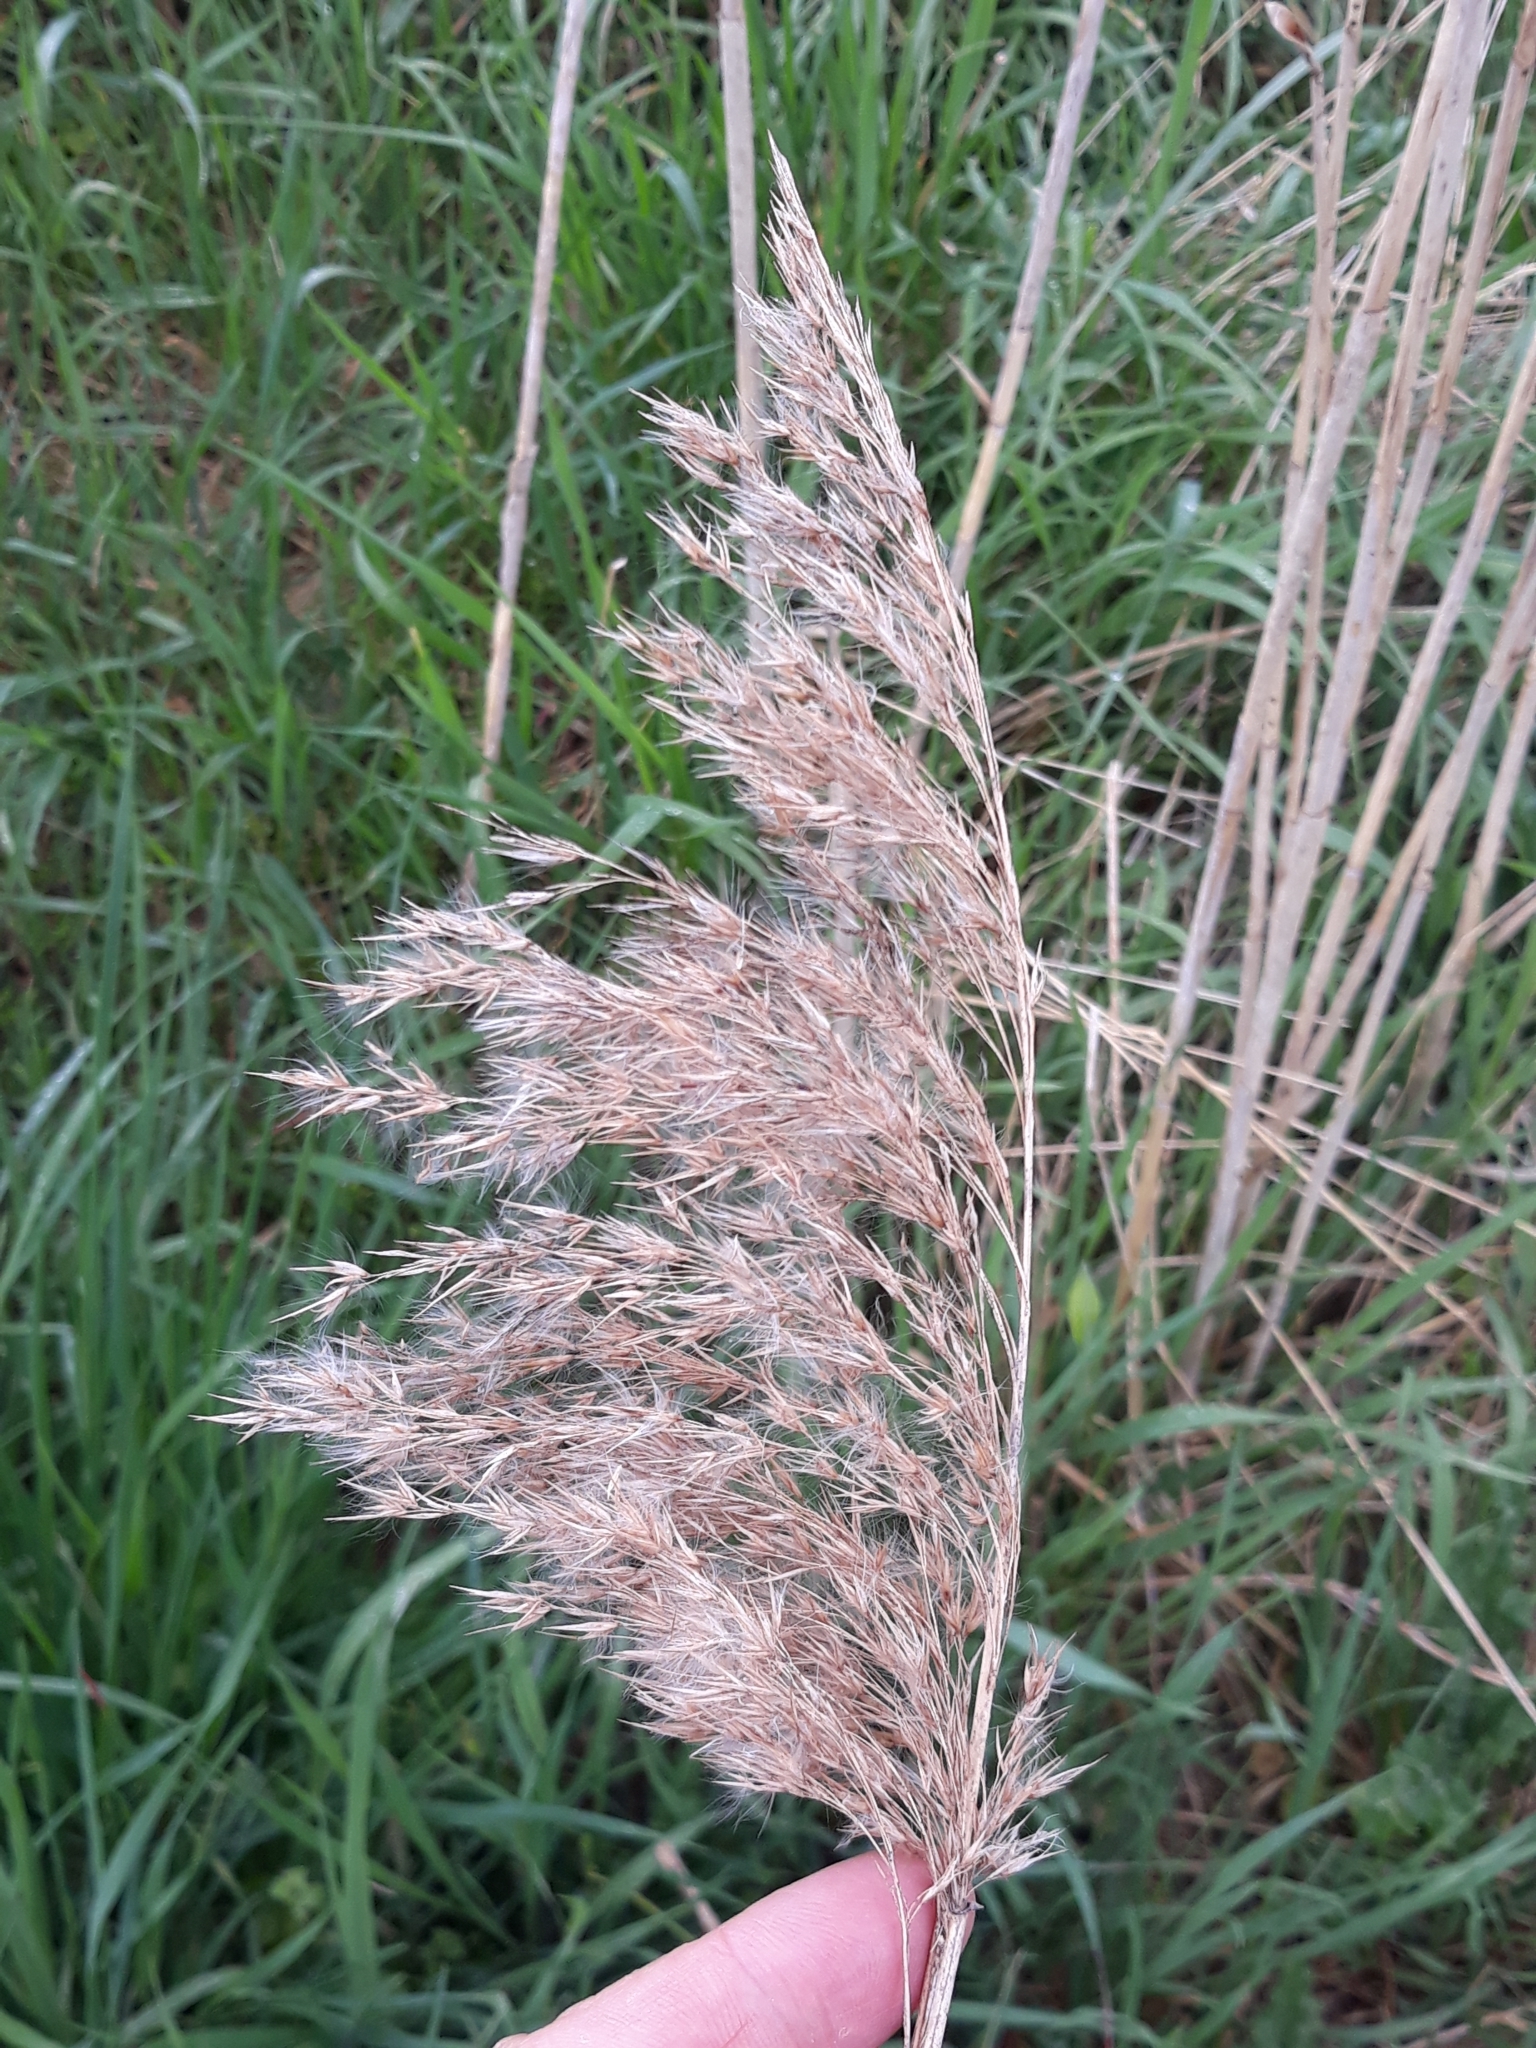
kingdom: Plantae
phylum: Tracheophyta
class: Liliopsida
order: Poales
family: Poaceae
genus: Phragmites
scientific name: Phragmites australis
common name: Common reed
